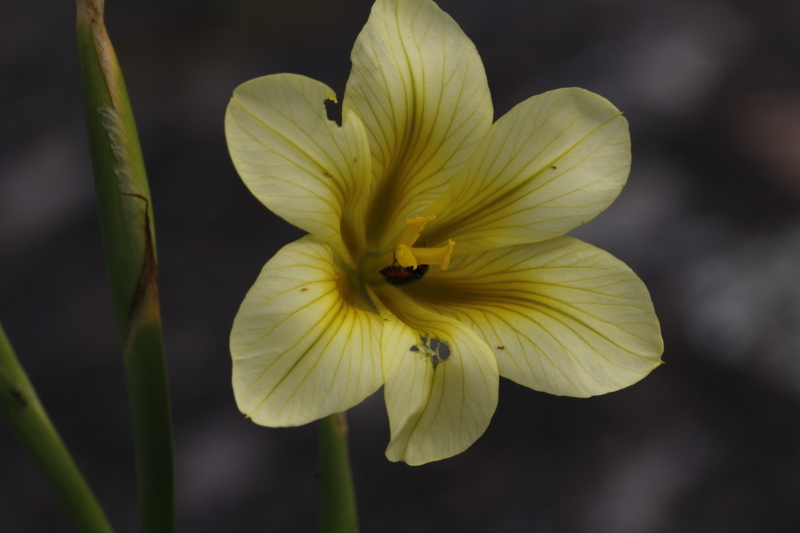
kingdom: Plantae
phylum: Tracheophyta
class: Liliopsida
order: Asparagales
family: Iridaceae
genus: Moraea
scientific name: Moraea ochroleuca
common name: Red tulp
